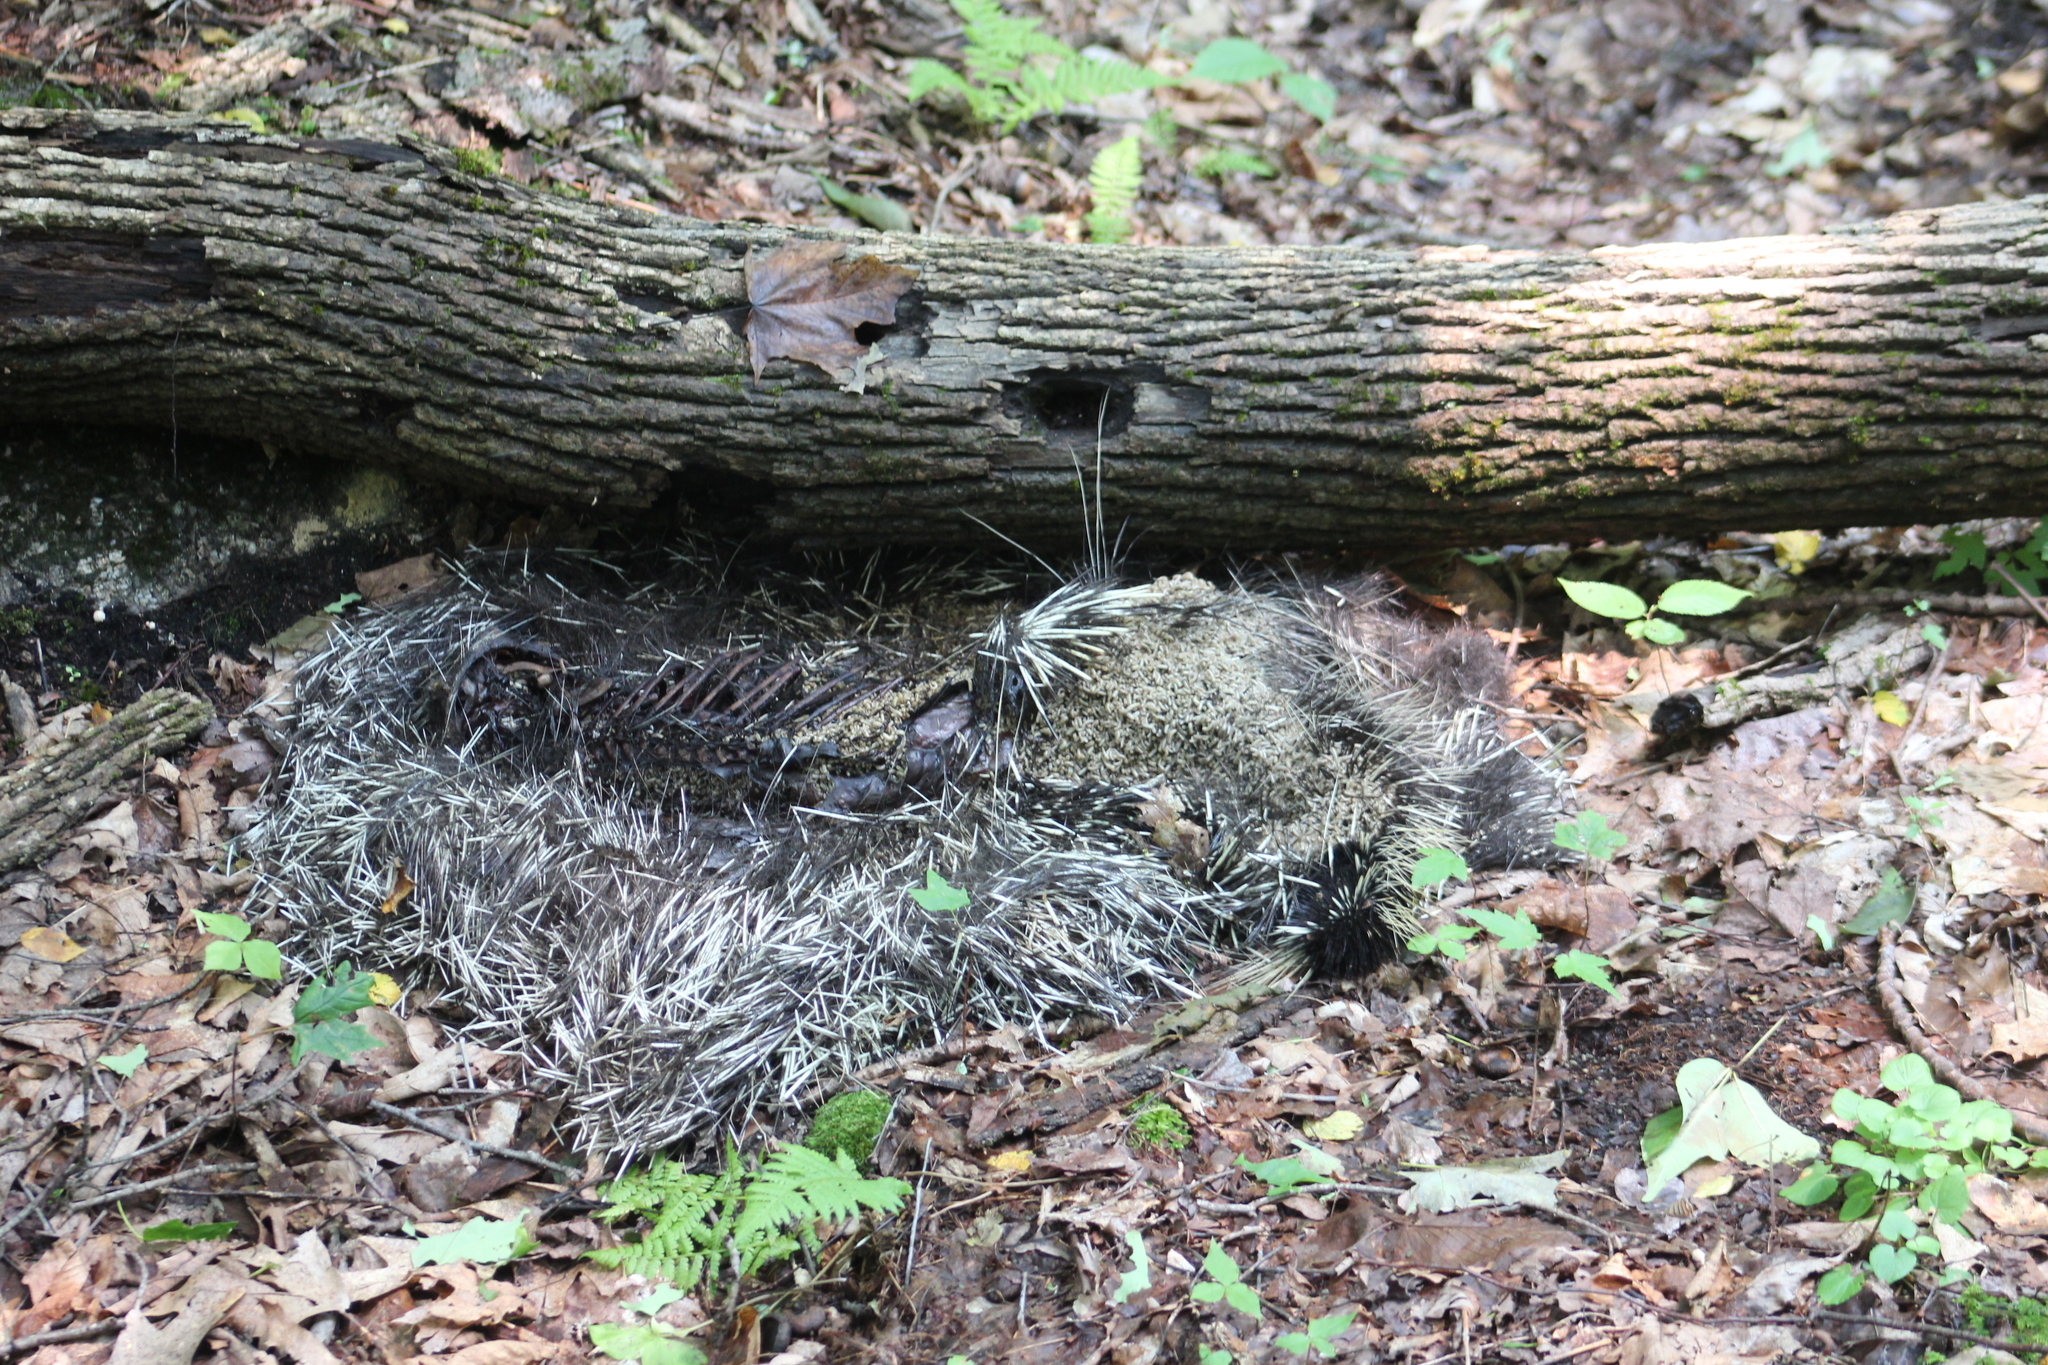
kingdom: Animalia
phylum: Chordata
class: Mammalia
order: Rodentia
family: Erethizontidae
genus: Erethizon
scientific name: Erethizon dorsatus
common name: North american porcupine
